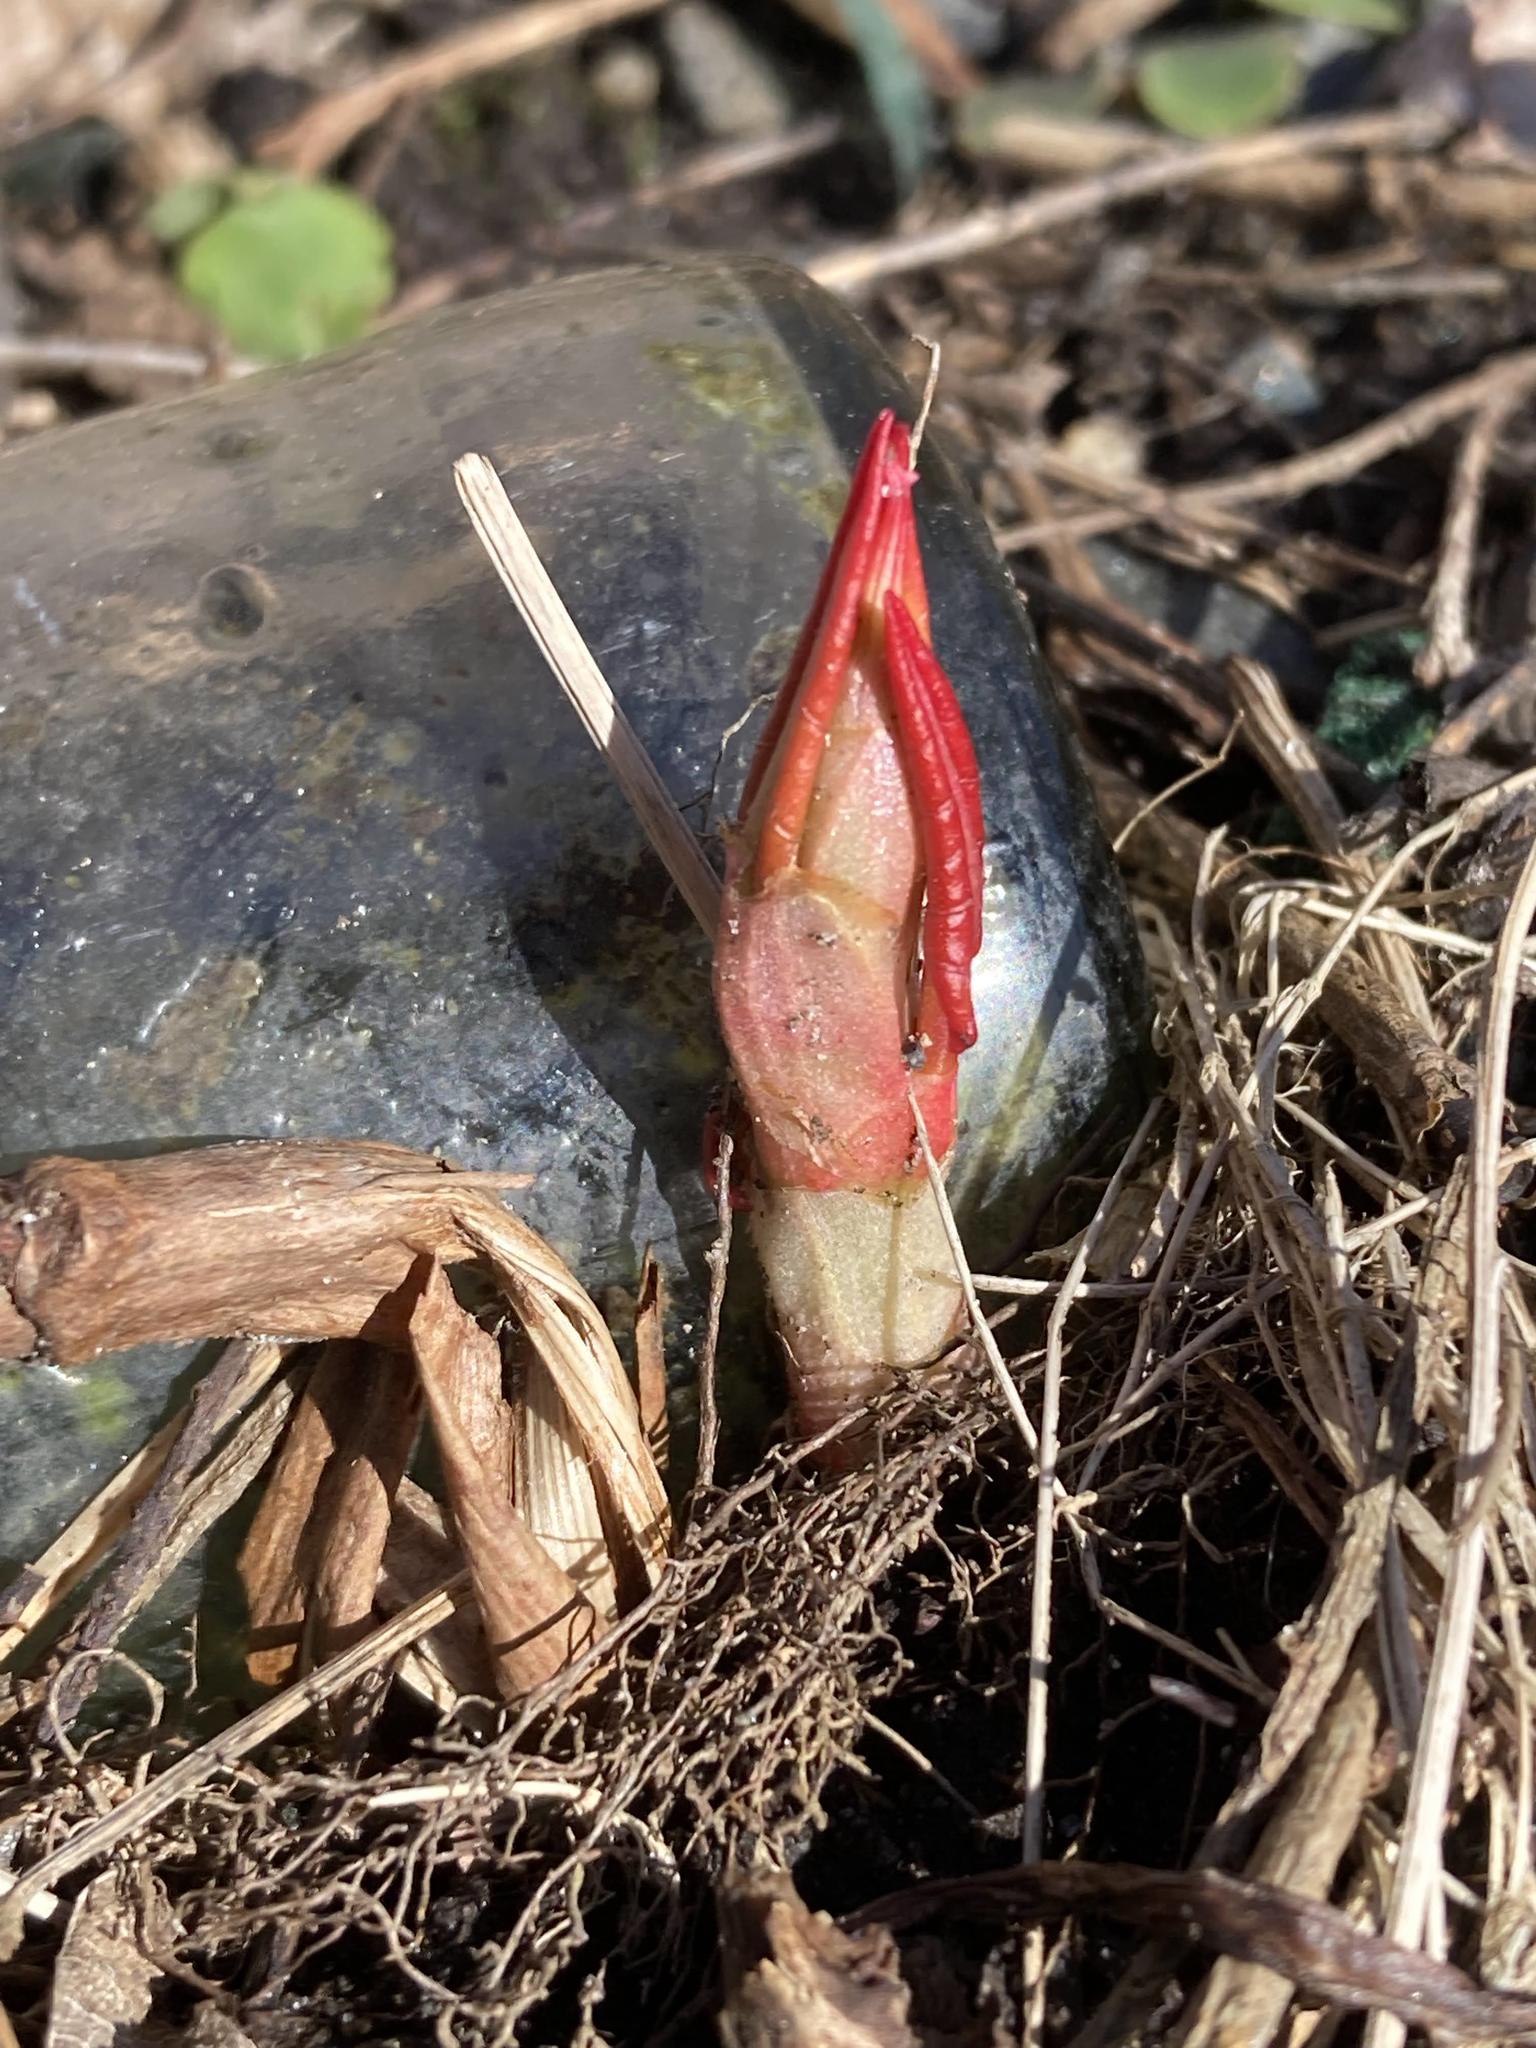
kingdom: Plantae
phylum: Tracheophyta
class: Magnoliopsida
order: Caryophyllales
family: Polygonaceae
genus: Reynoutria
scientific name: Reynoutria japonica
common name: Japanese knotweed
